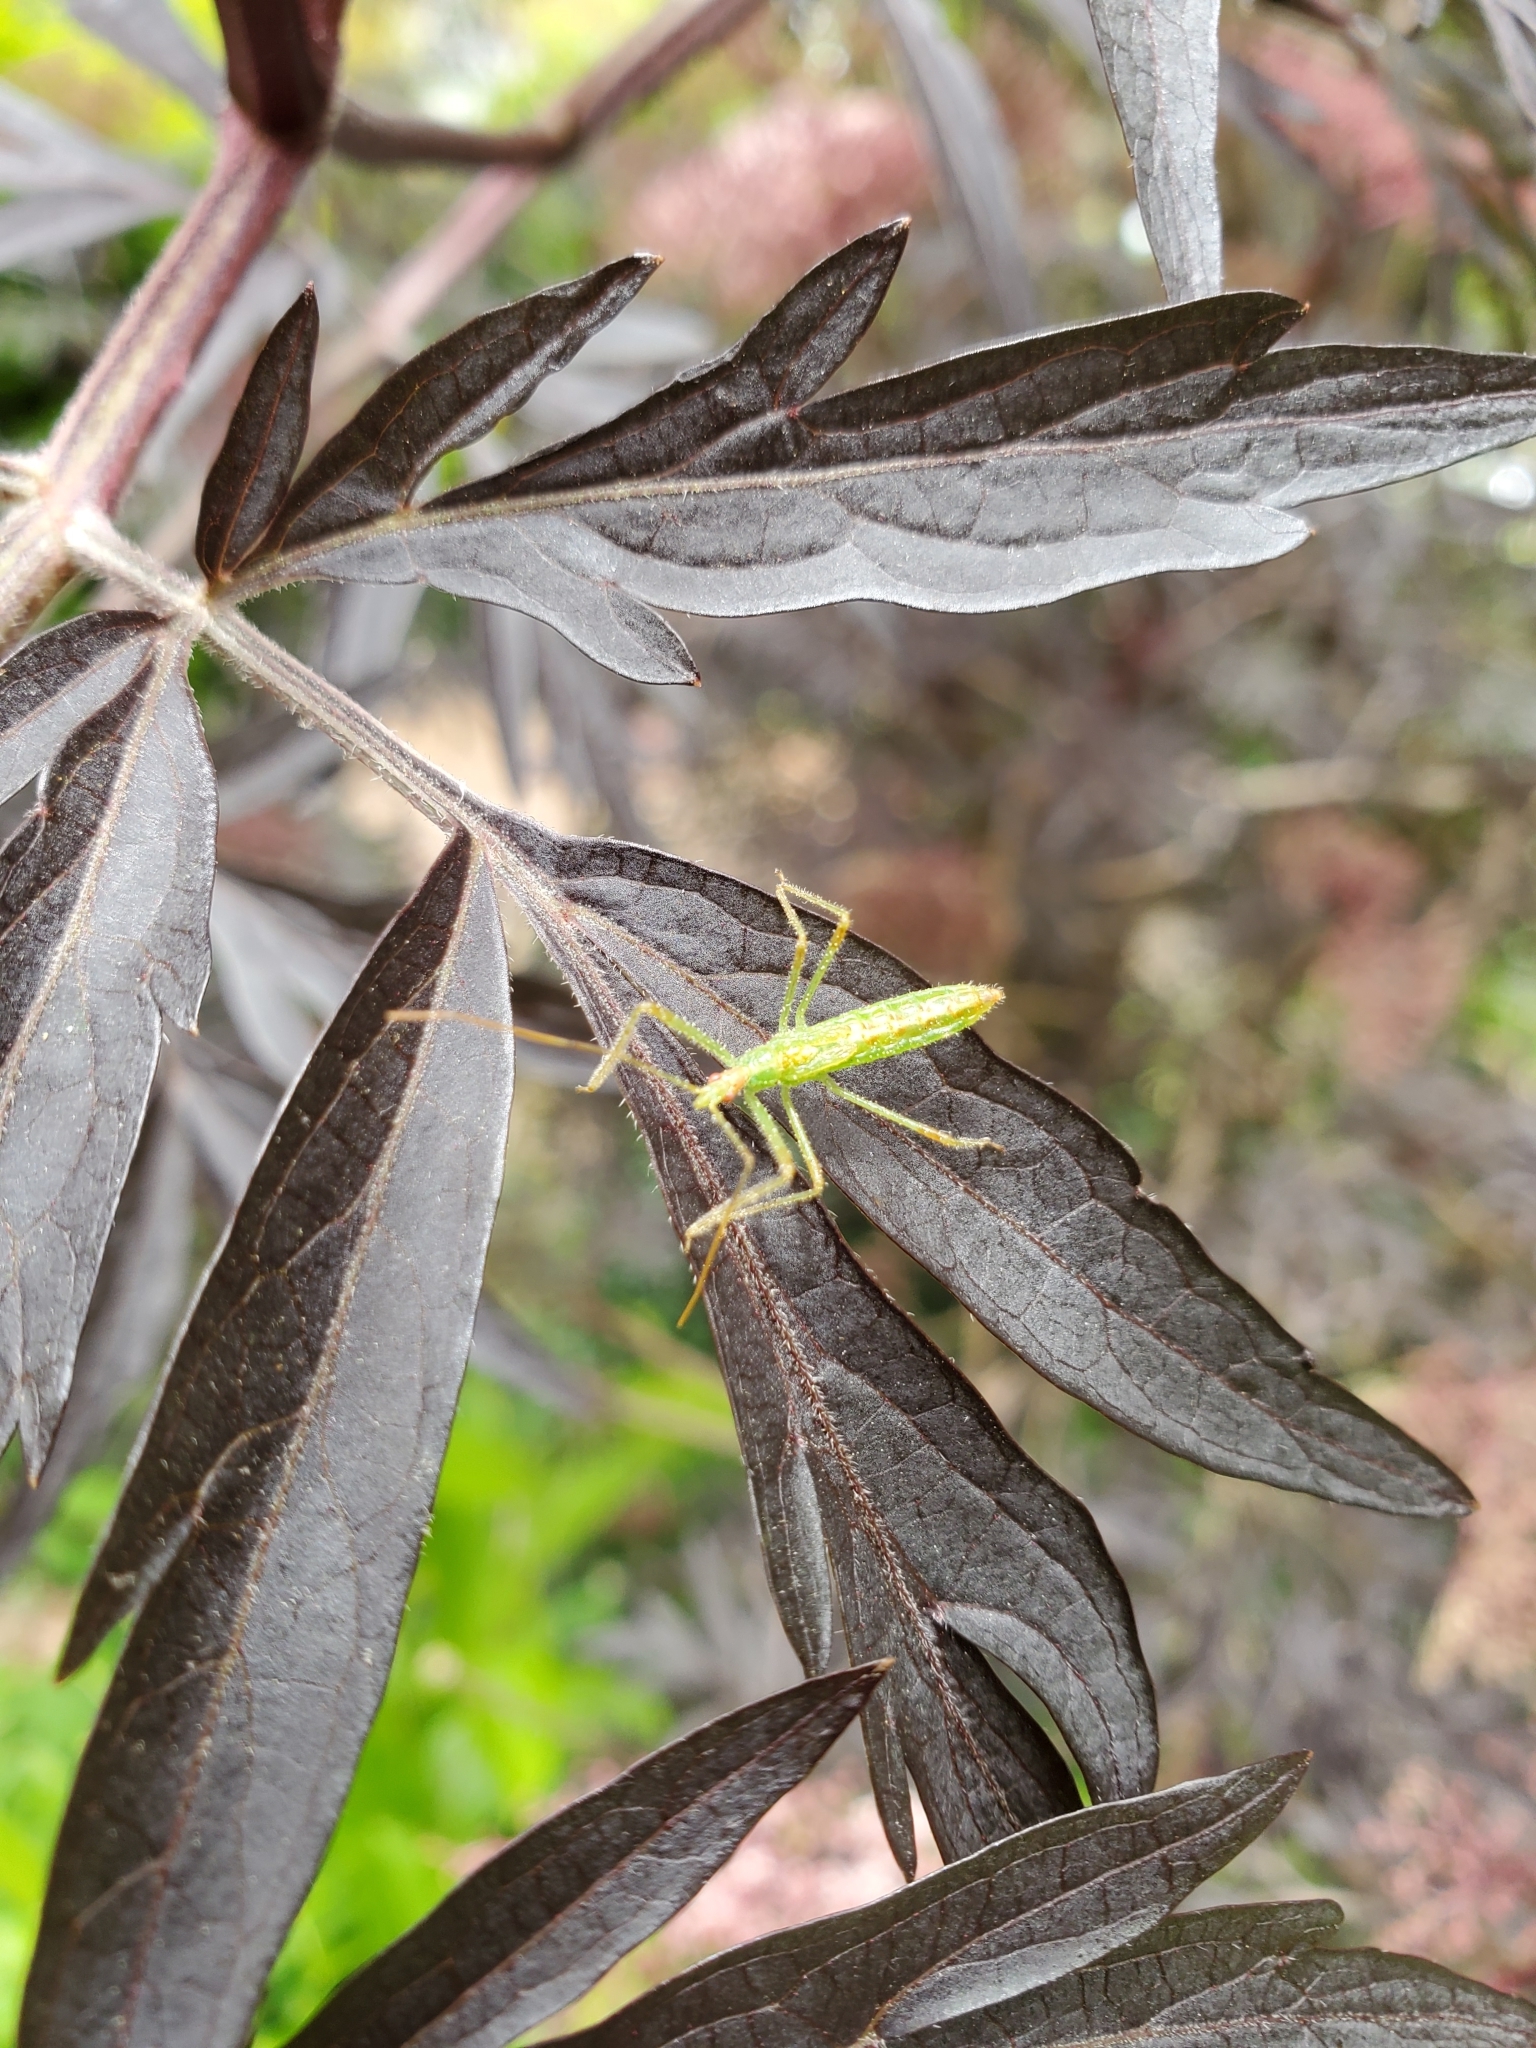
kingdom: Animalia
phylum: Arthropoda
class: Insecta
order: Hemiptera
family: Reduviidae
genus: Zelus
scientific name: Zelus luridus
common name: Pale green assassin bug
